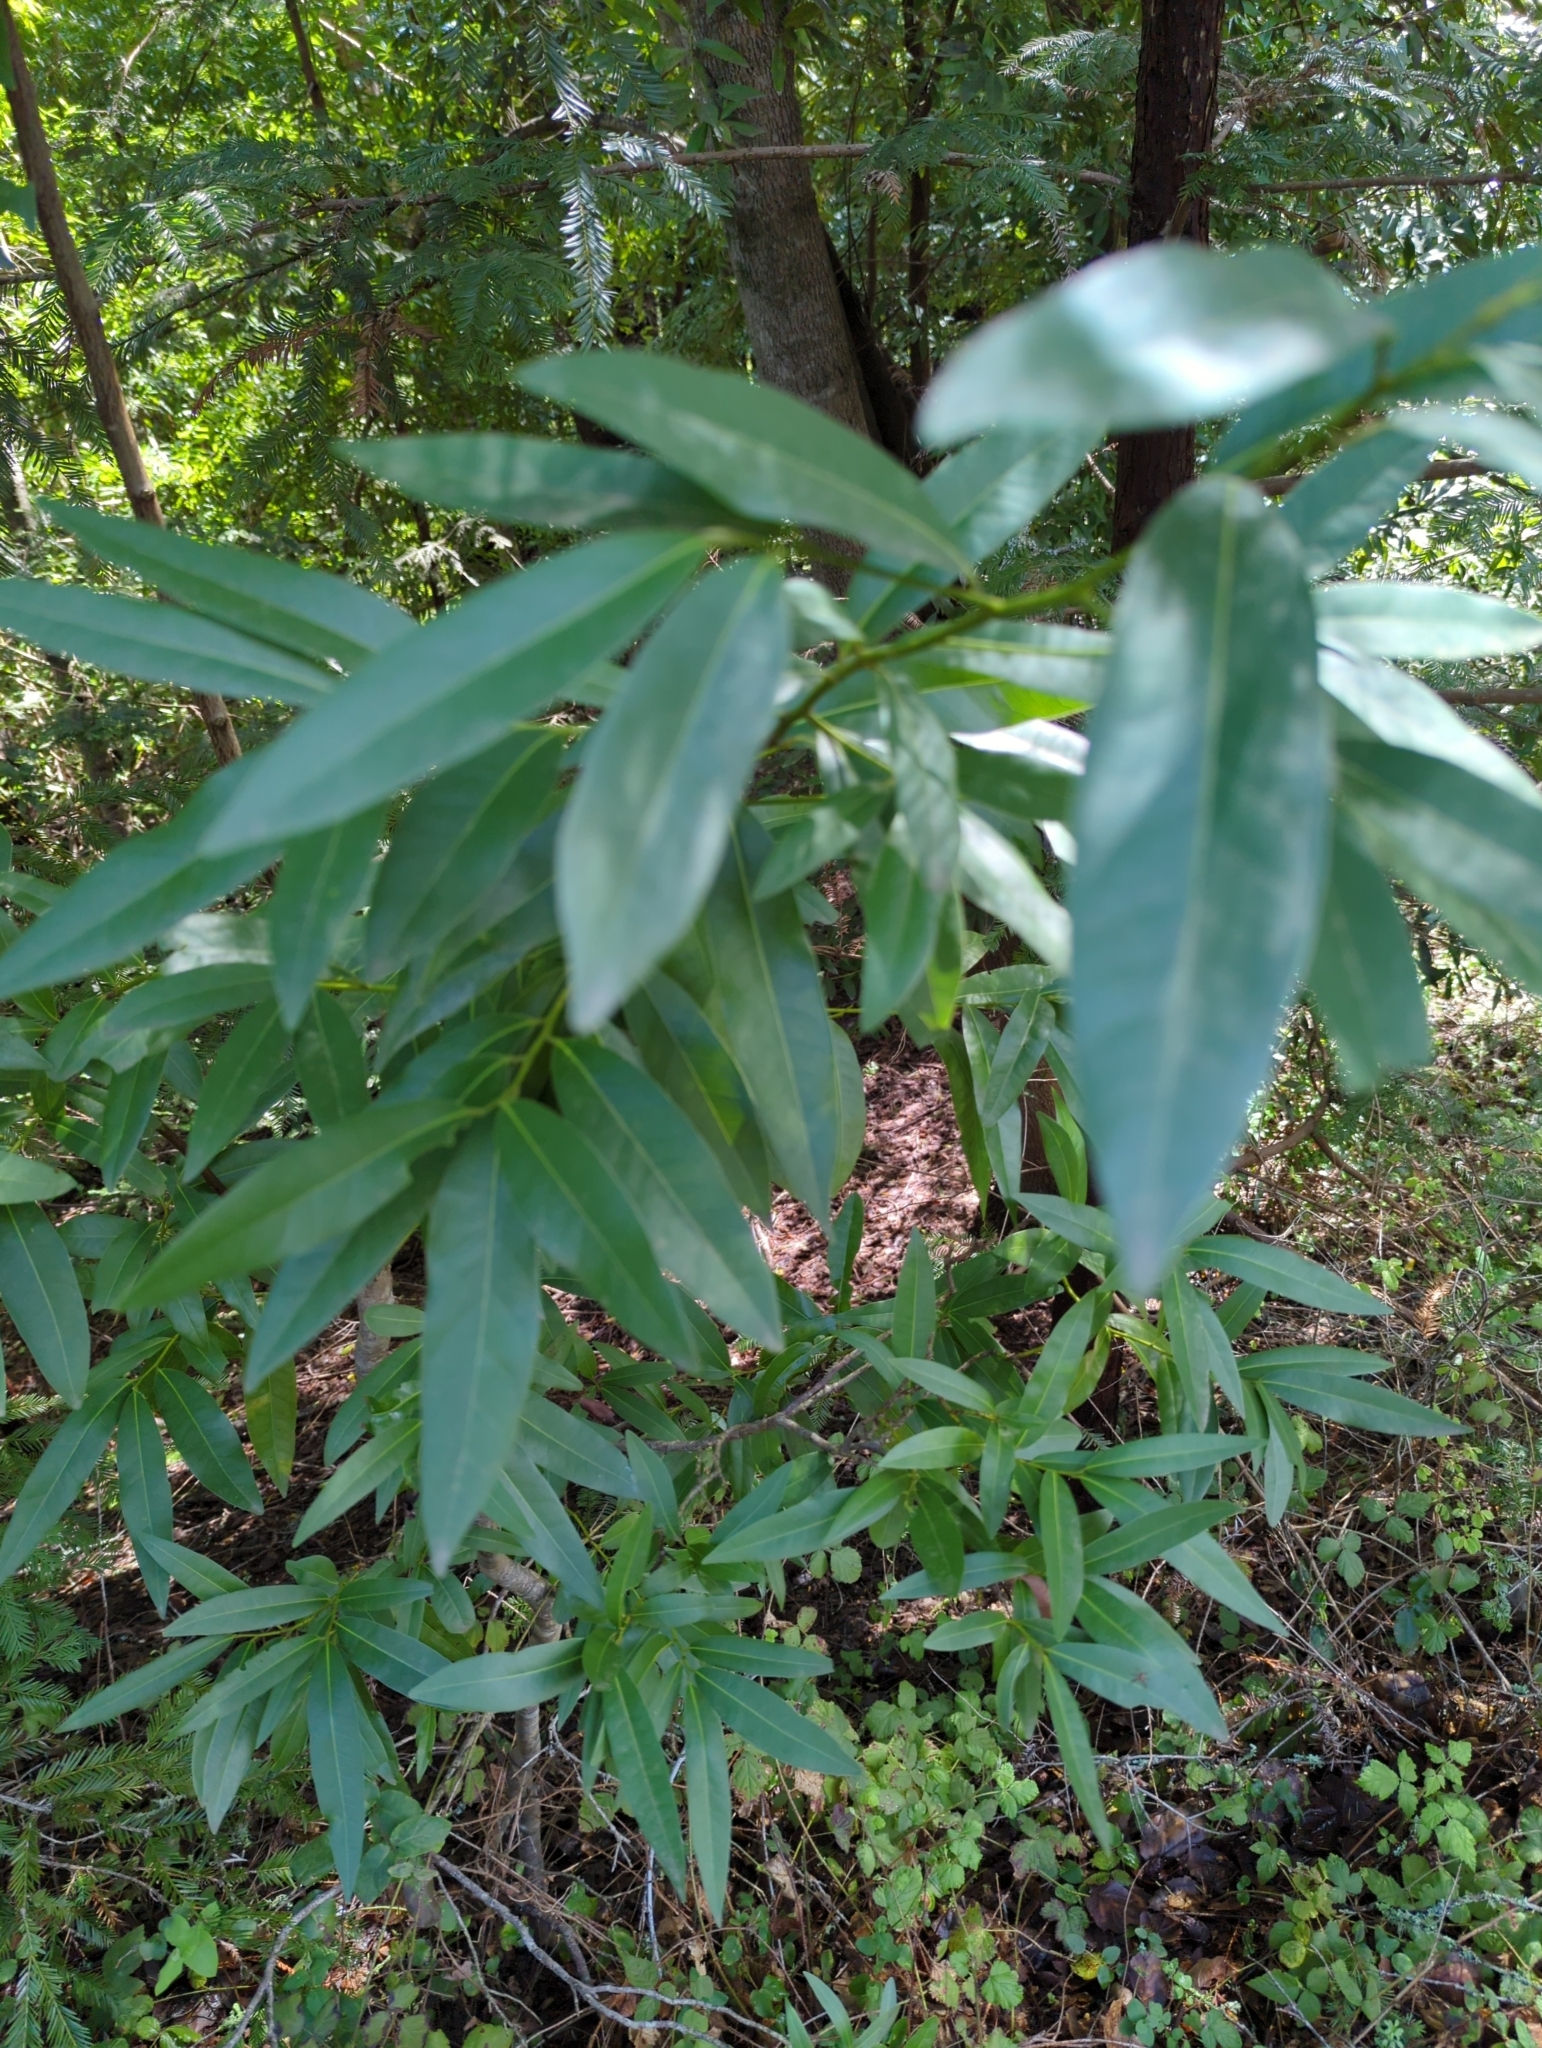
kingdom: Plantae
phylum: Tracheophyta
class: Magnoliopsida
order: Laurales
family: Lauraceae
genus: Umbellularia
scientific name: Umbellularia californica
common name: California bay
